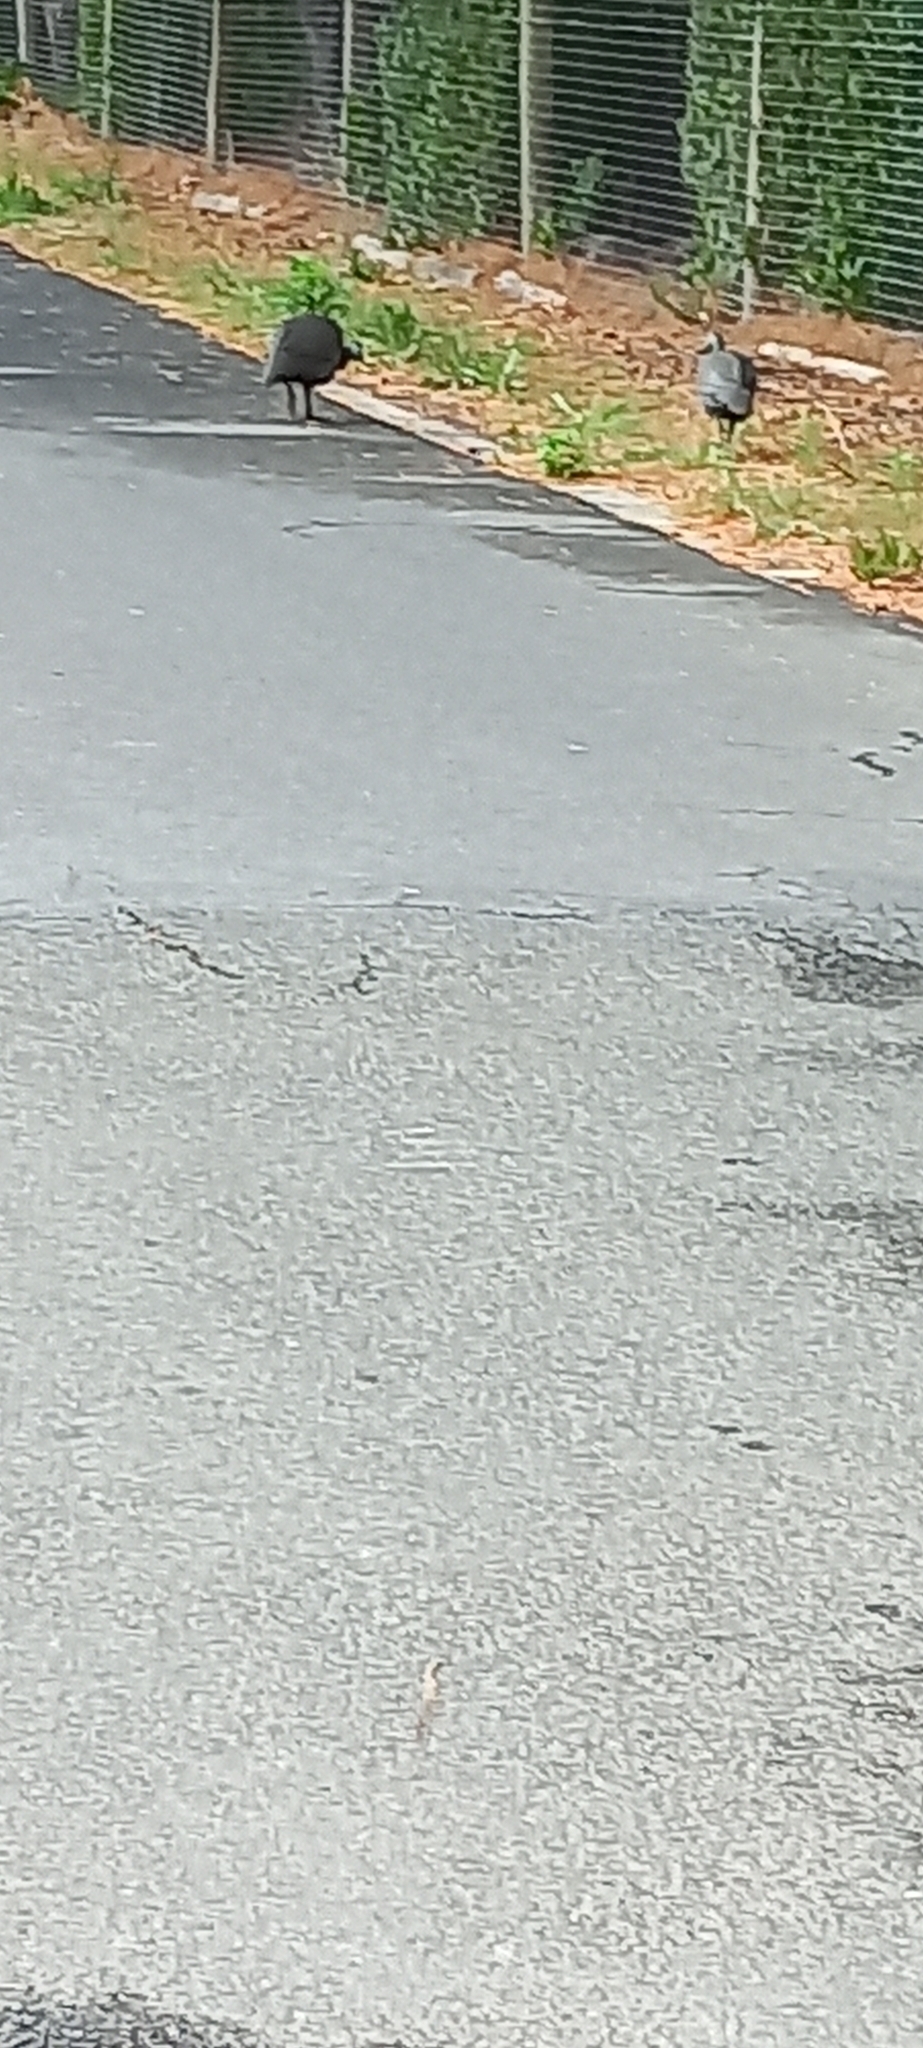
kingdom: Animalia
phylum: Chordata
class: Aves
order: Galliformes
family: Numididae
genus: Numida
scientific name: Numida meleagris
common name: Helmeted guineafowl
